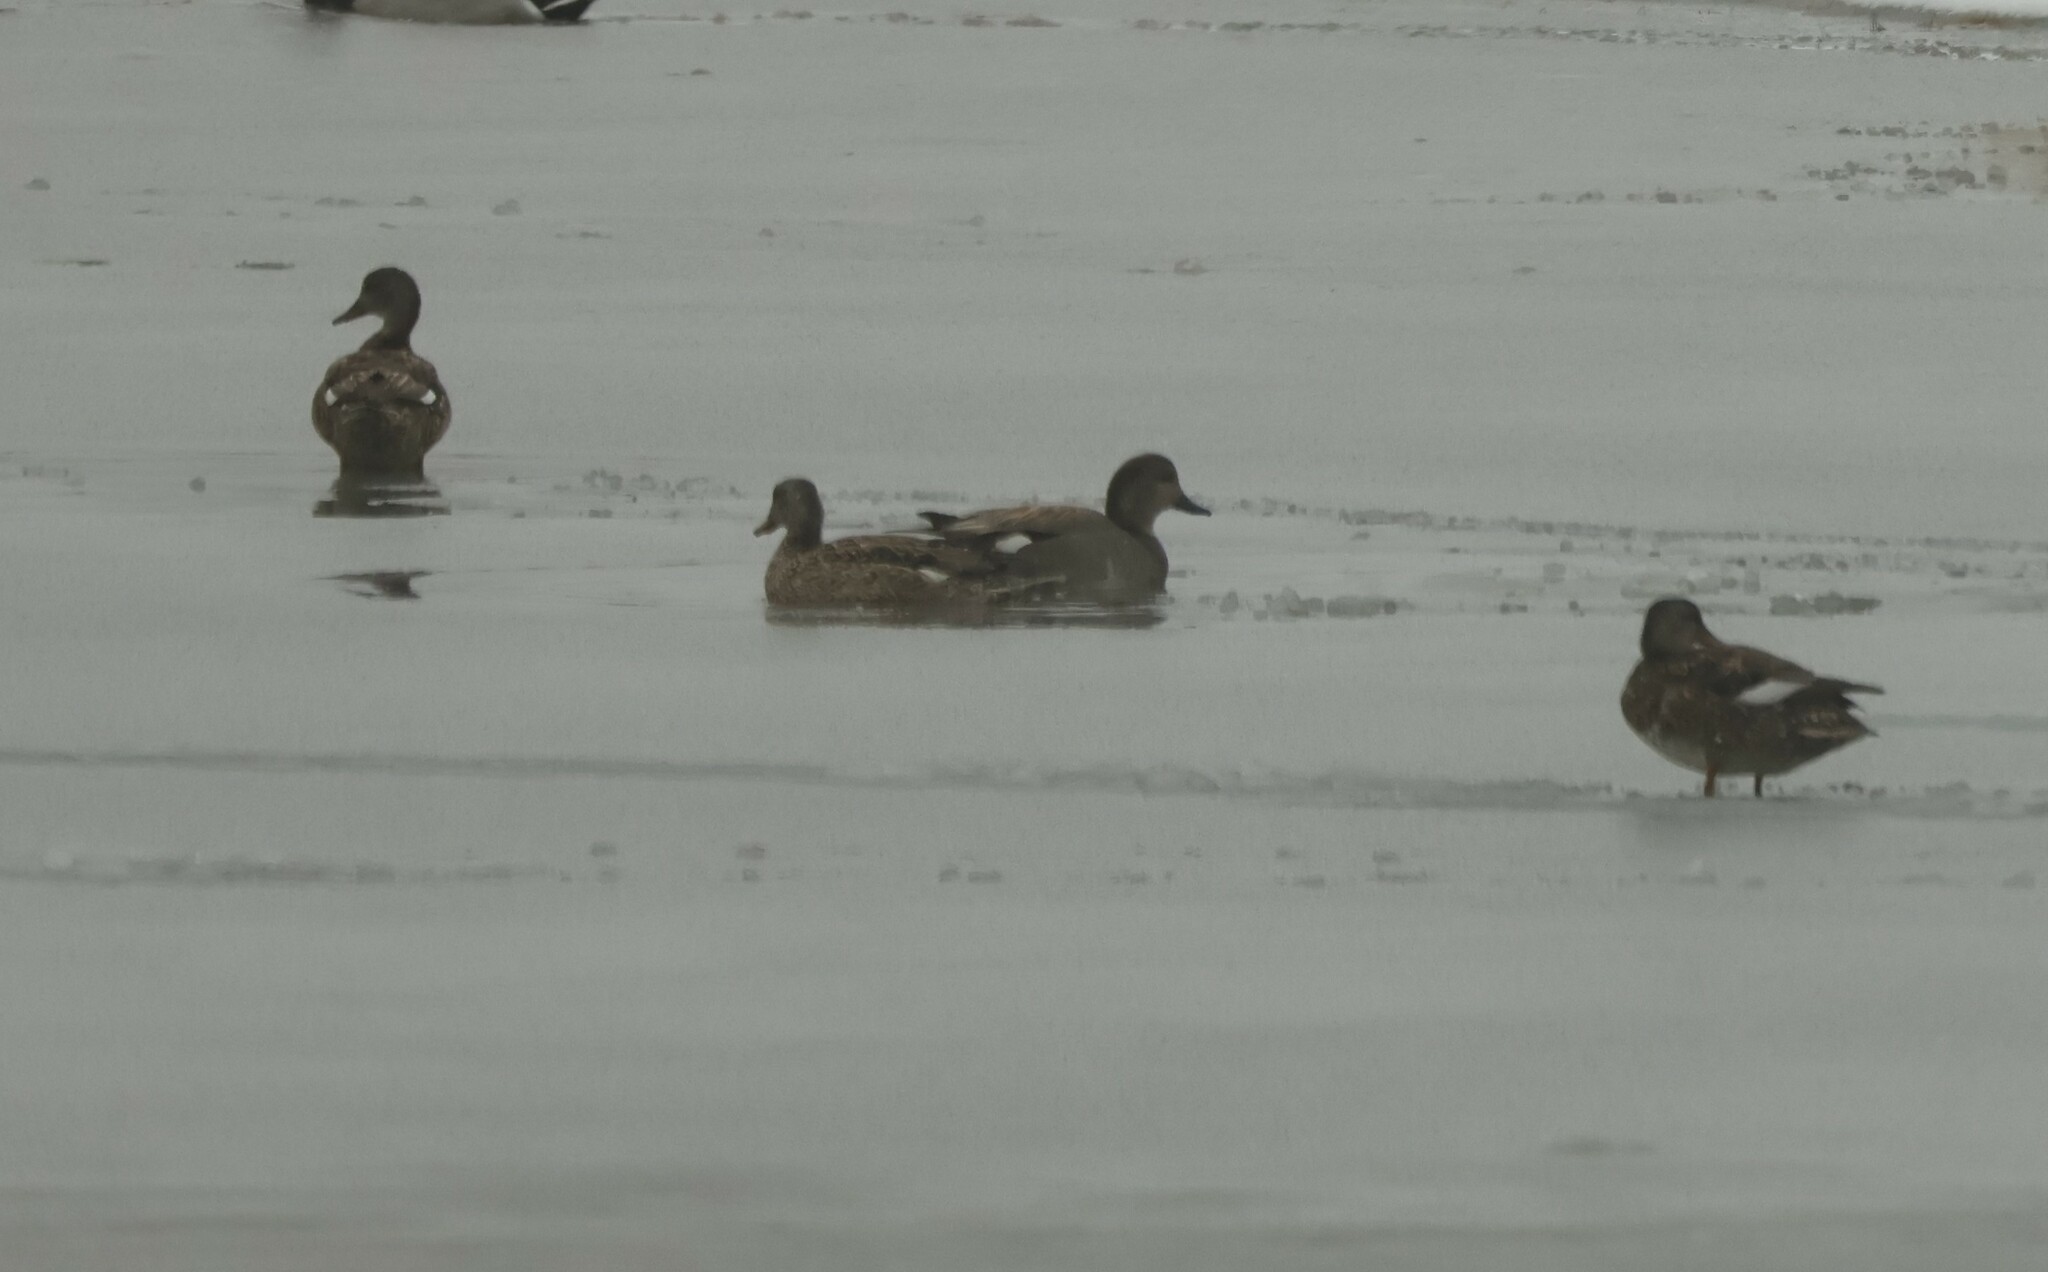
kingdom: Animalia
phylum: Chordata
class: Aves
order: Anseriformes
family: Anatidae
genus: Mareca
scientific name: Mareca strepera
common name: Gadwall
